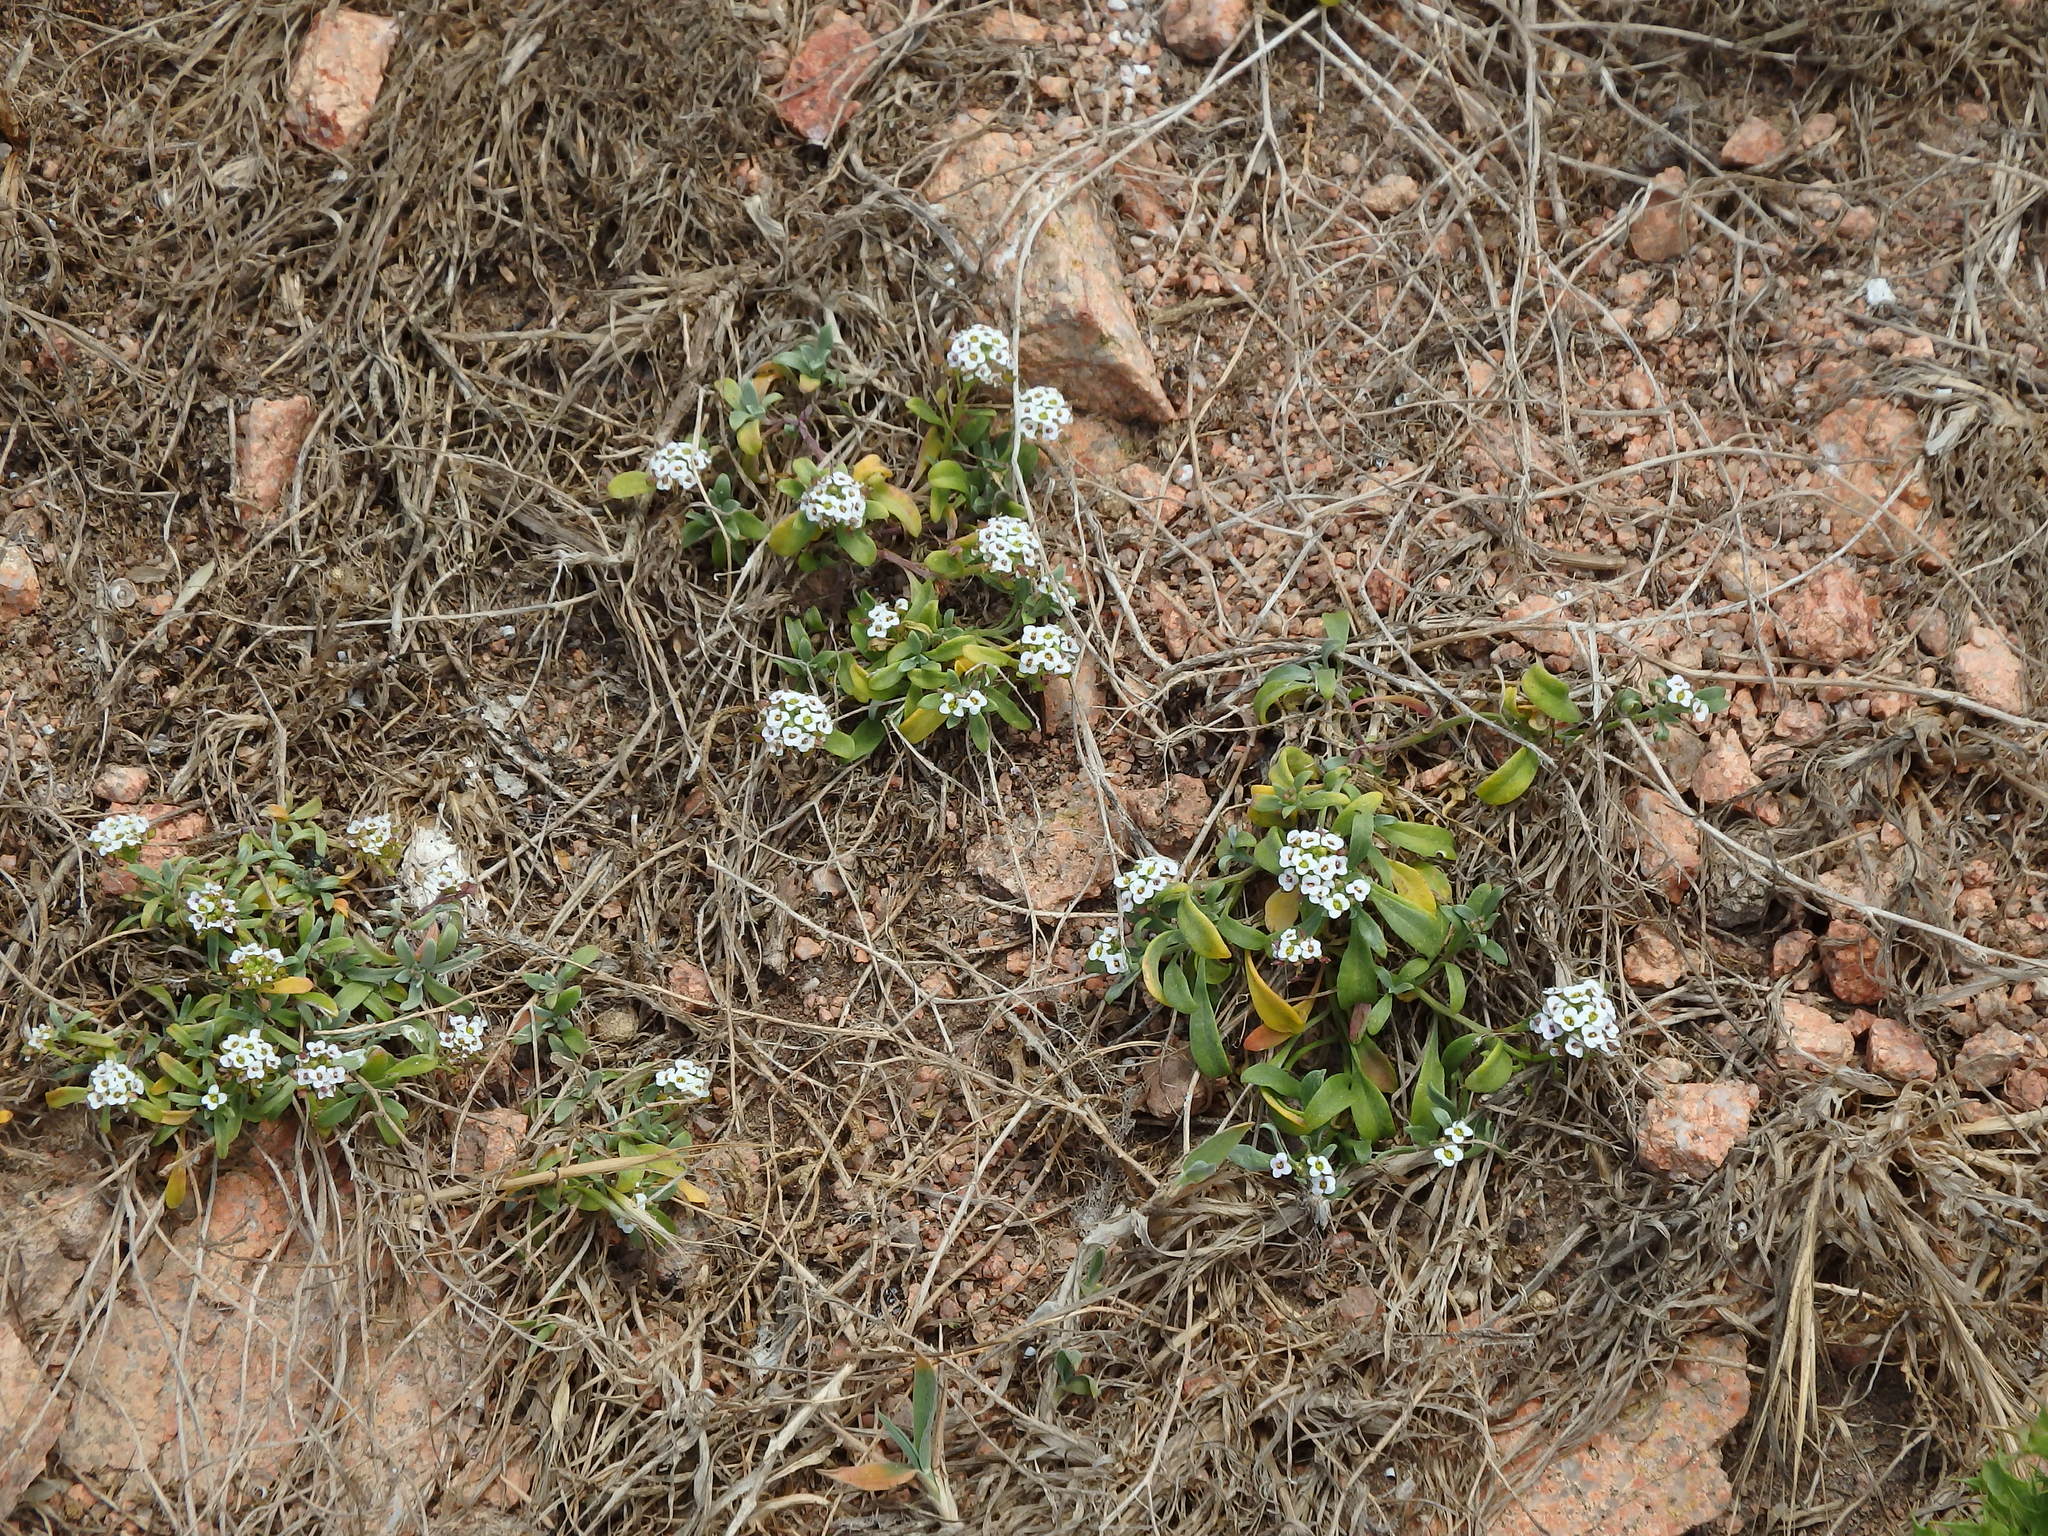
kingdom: Plantae
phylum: Tracheophyta
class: Magnoliopsida
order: Brassicales
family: Brassicaceae
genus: Lobularia
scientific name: Lobularia maritima
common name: Sweet alison
